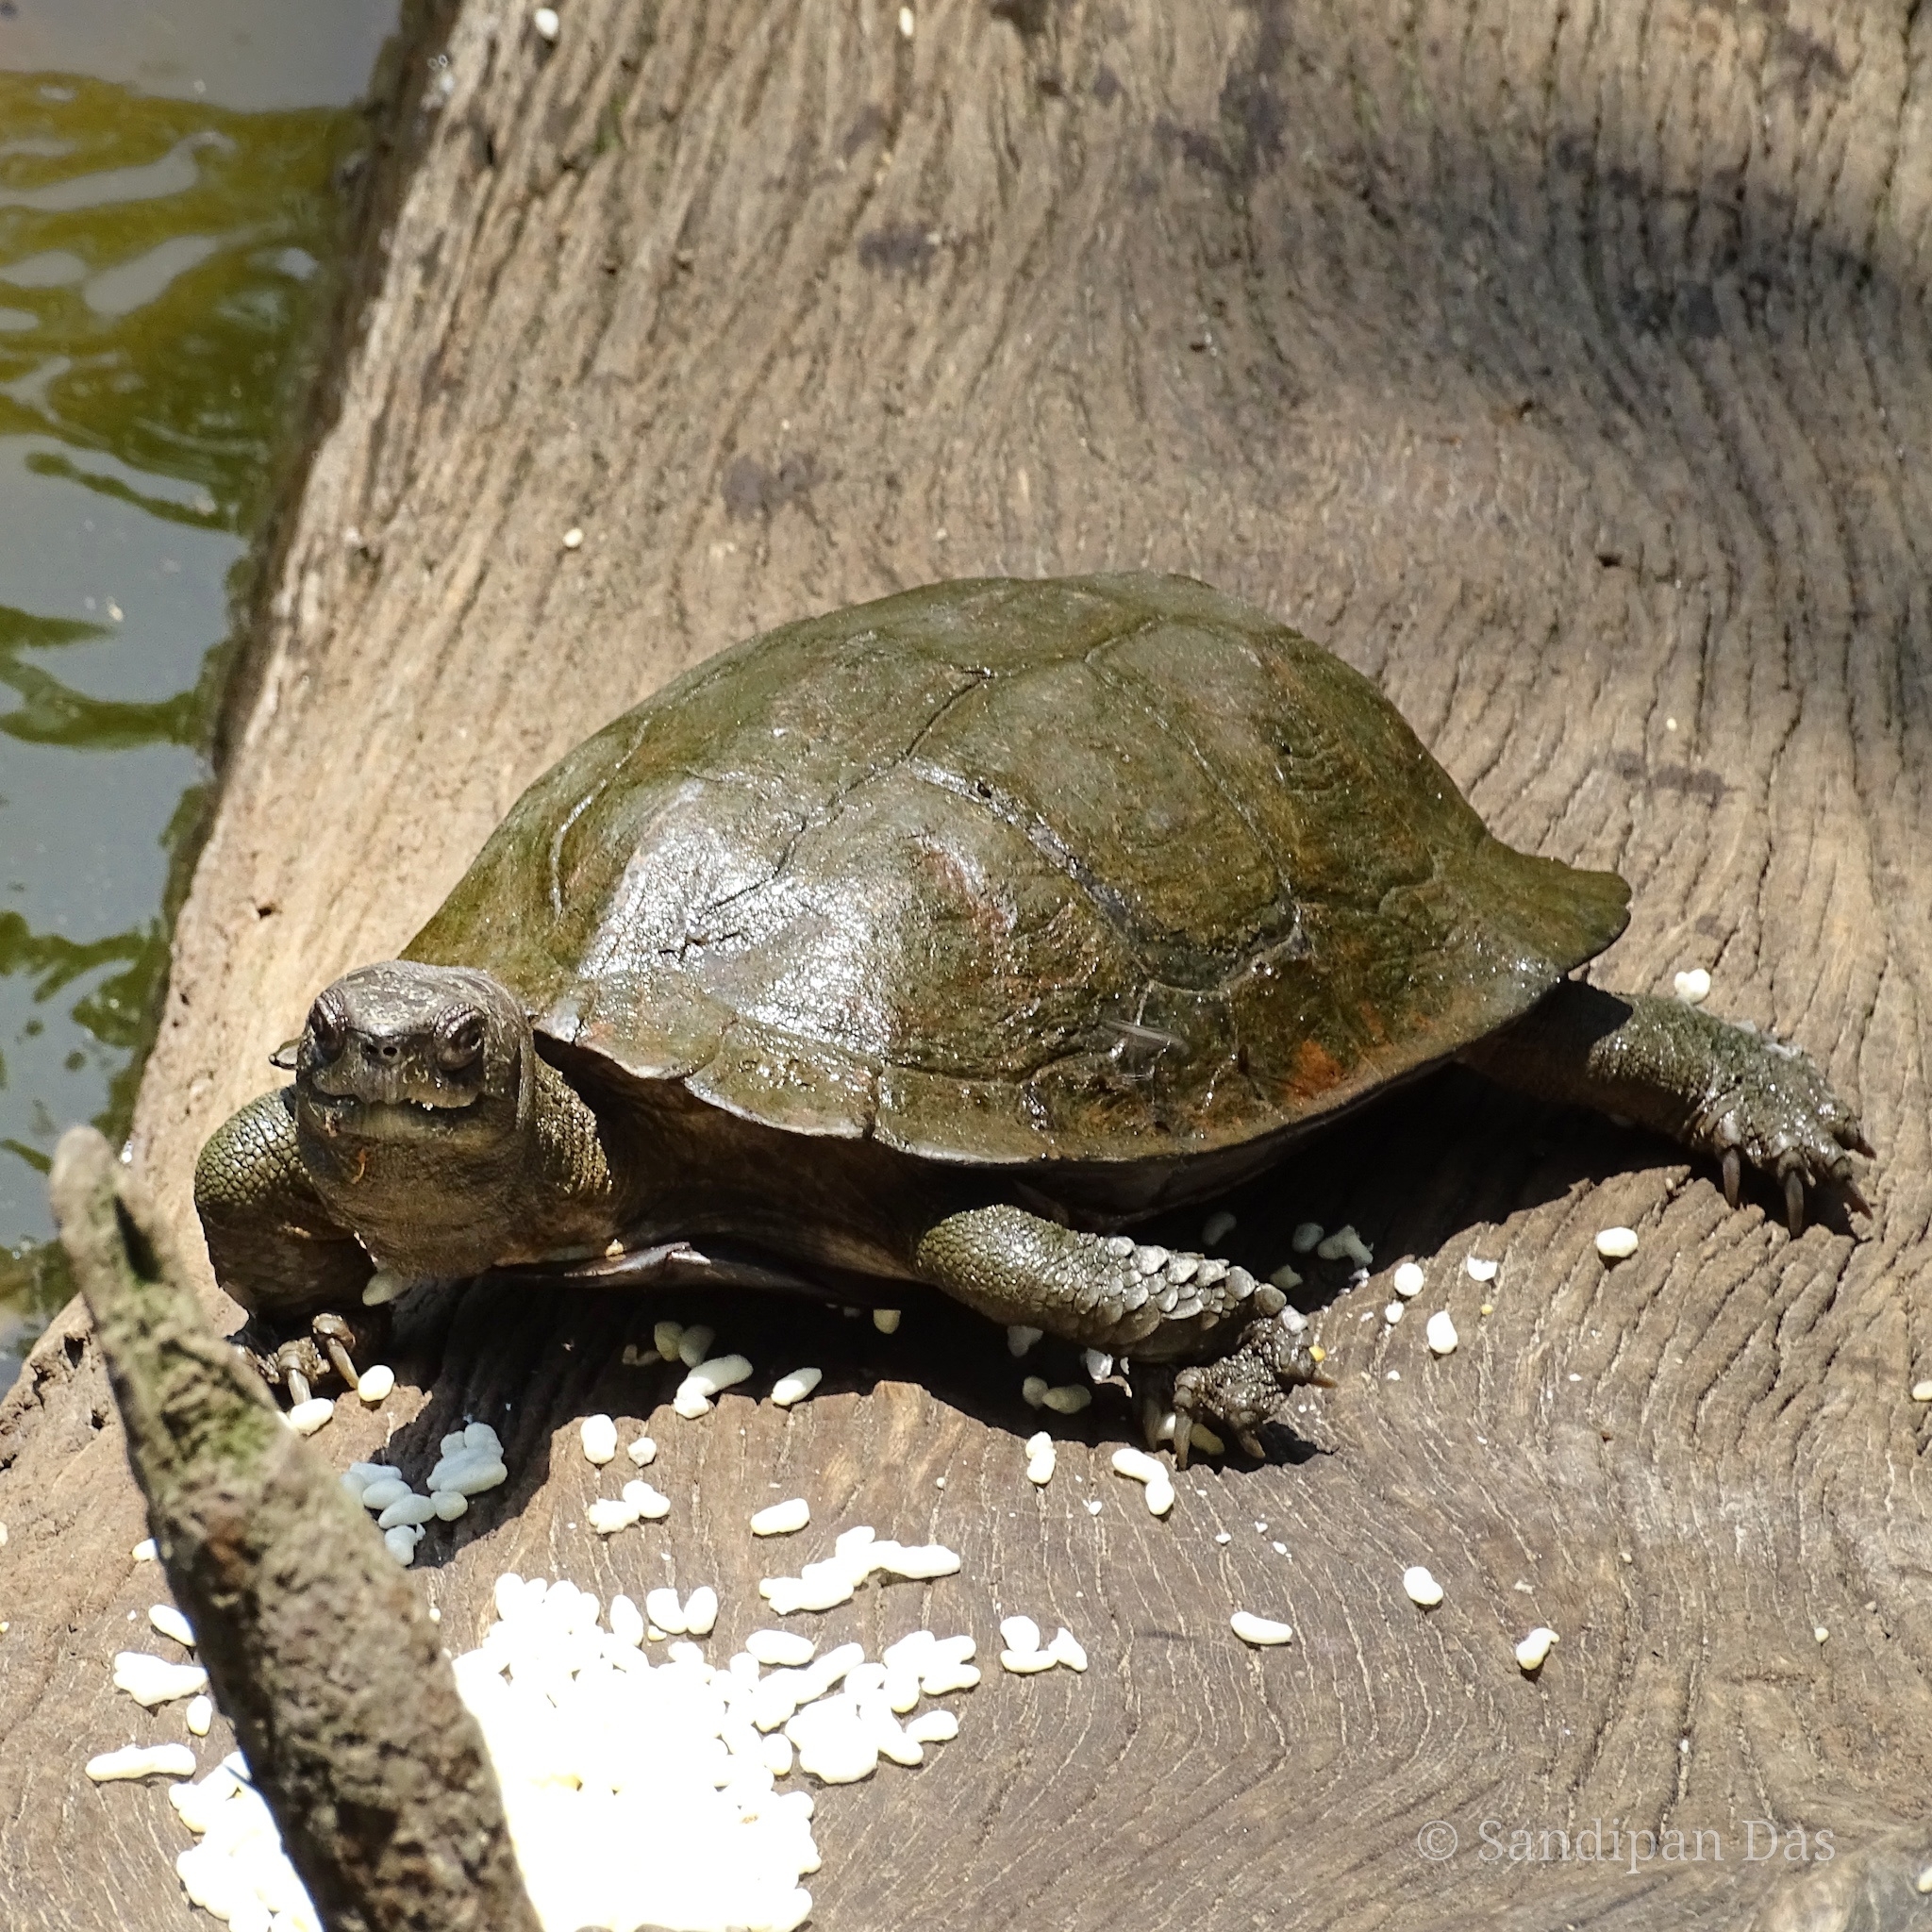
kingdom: Animalia
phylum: Chordata
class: Testudines
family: Geoemydidae
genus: Cyclemys
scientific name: Cyclemys gemeli
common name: Assam leaf turtle
